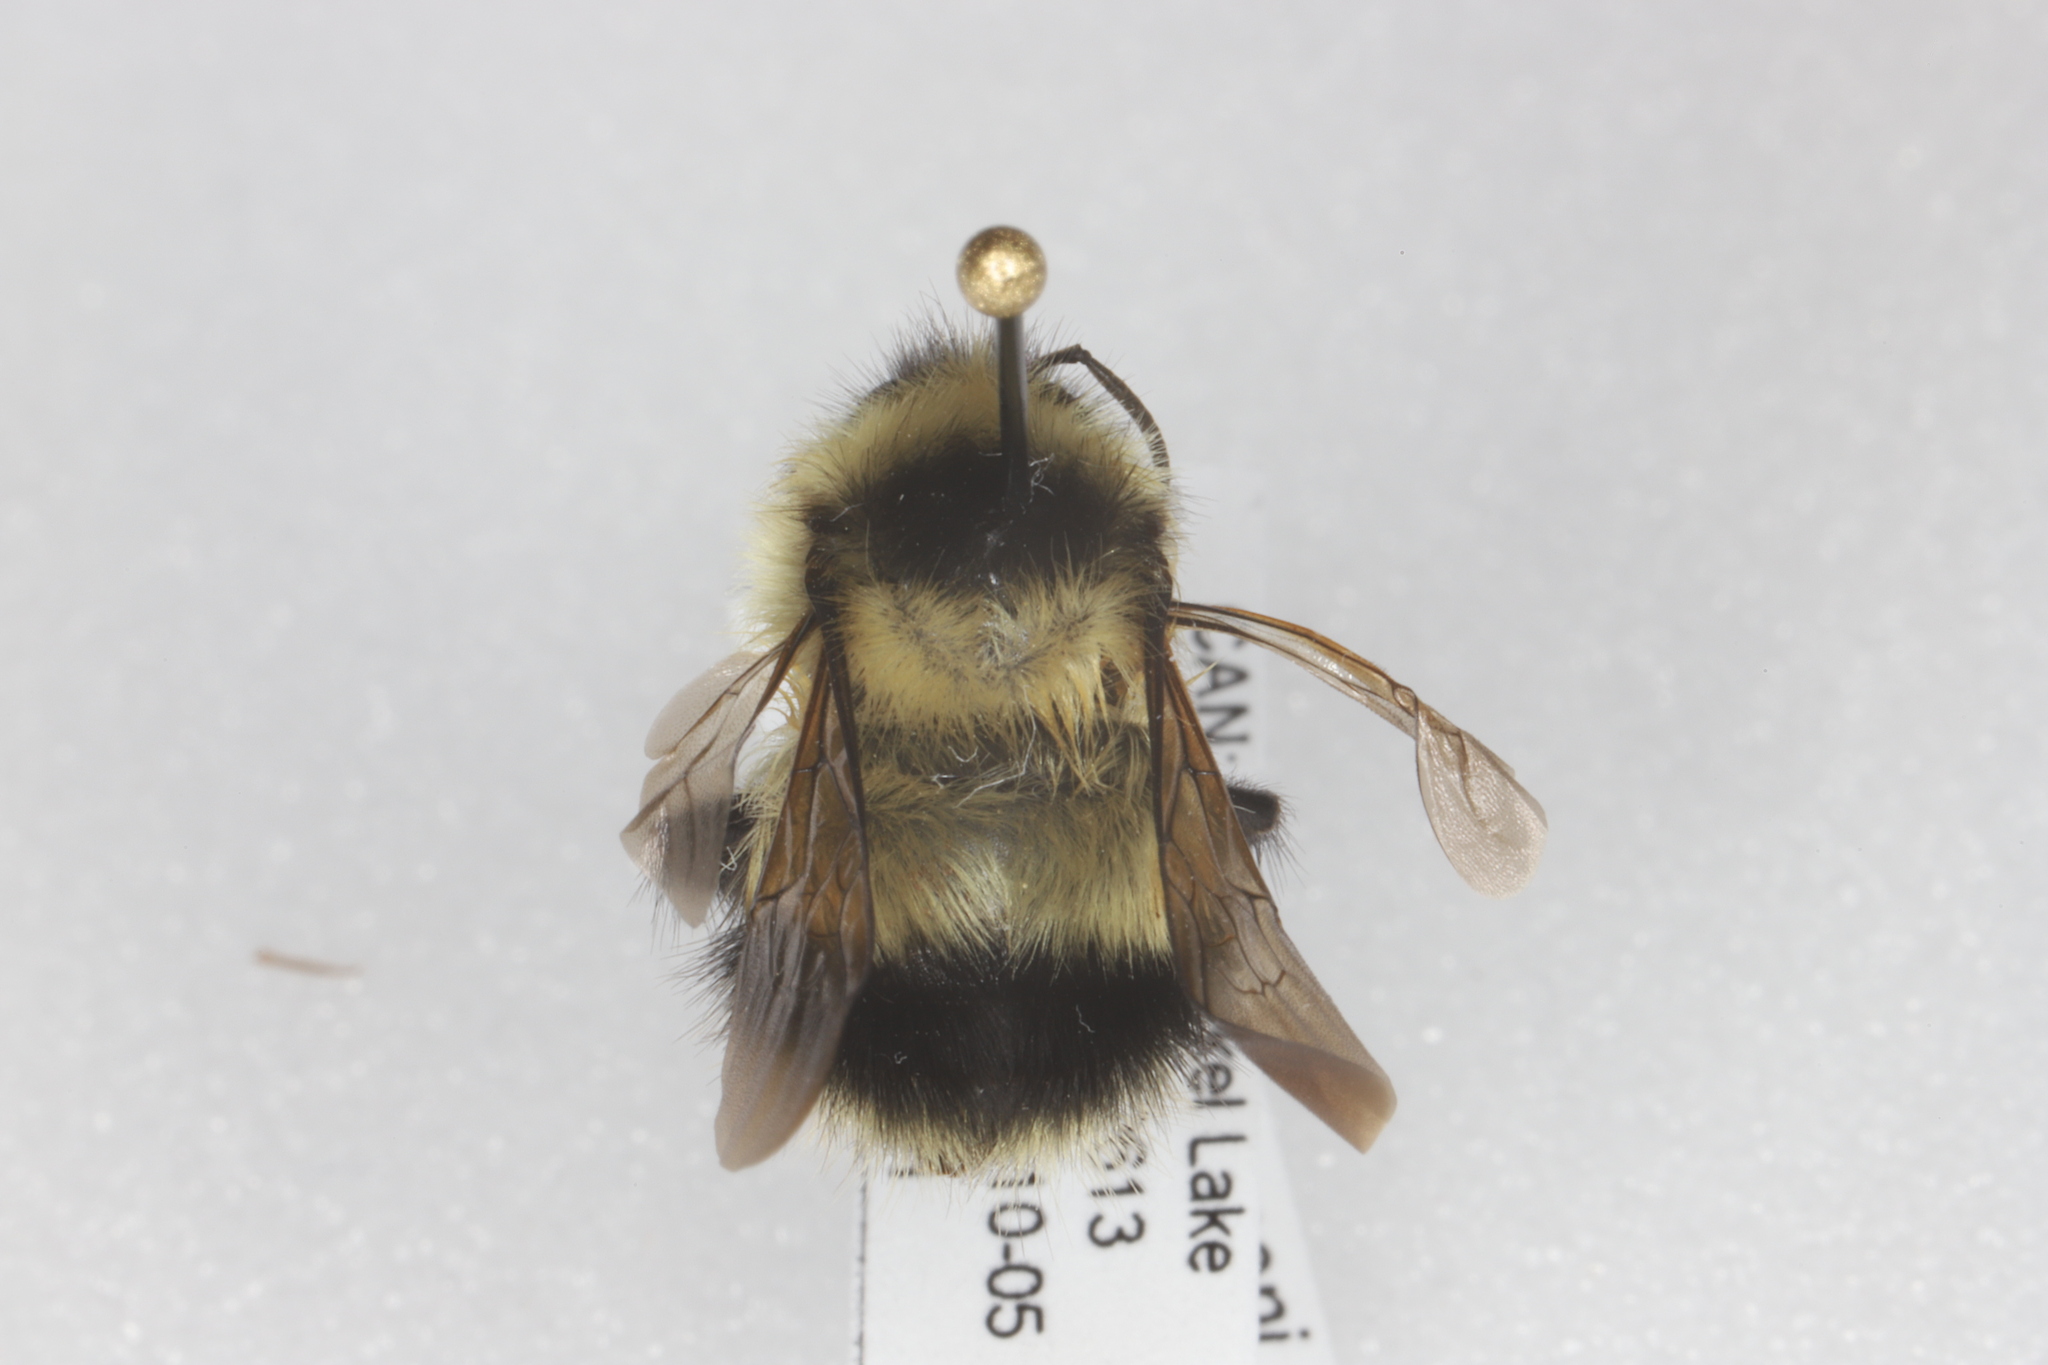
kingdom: Animalia
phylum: Arthropoda
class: Insecta
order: Hymenoptera
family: Apidae
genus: Bombus
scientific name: Bombus sandersoni
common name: Sanderson bumble bee
